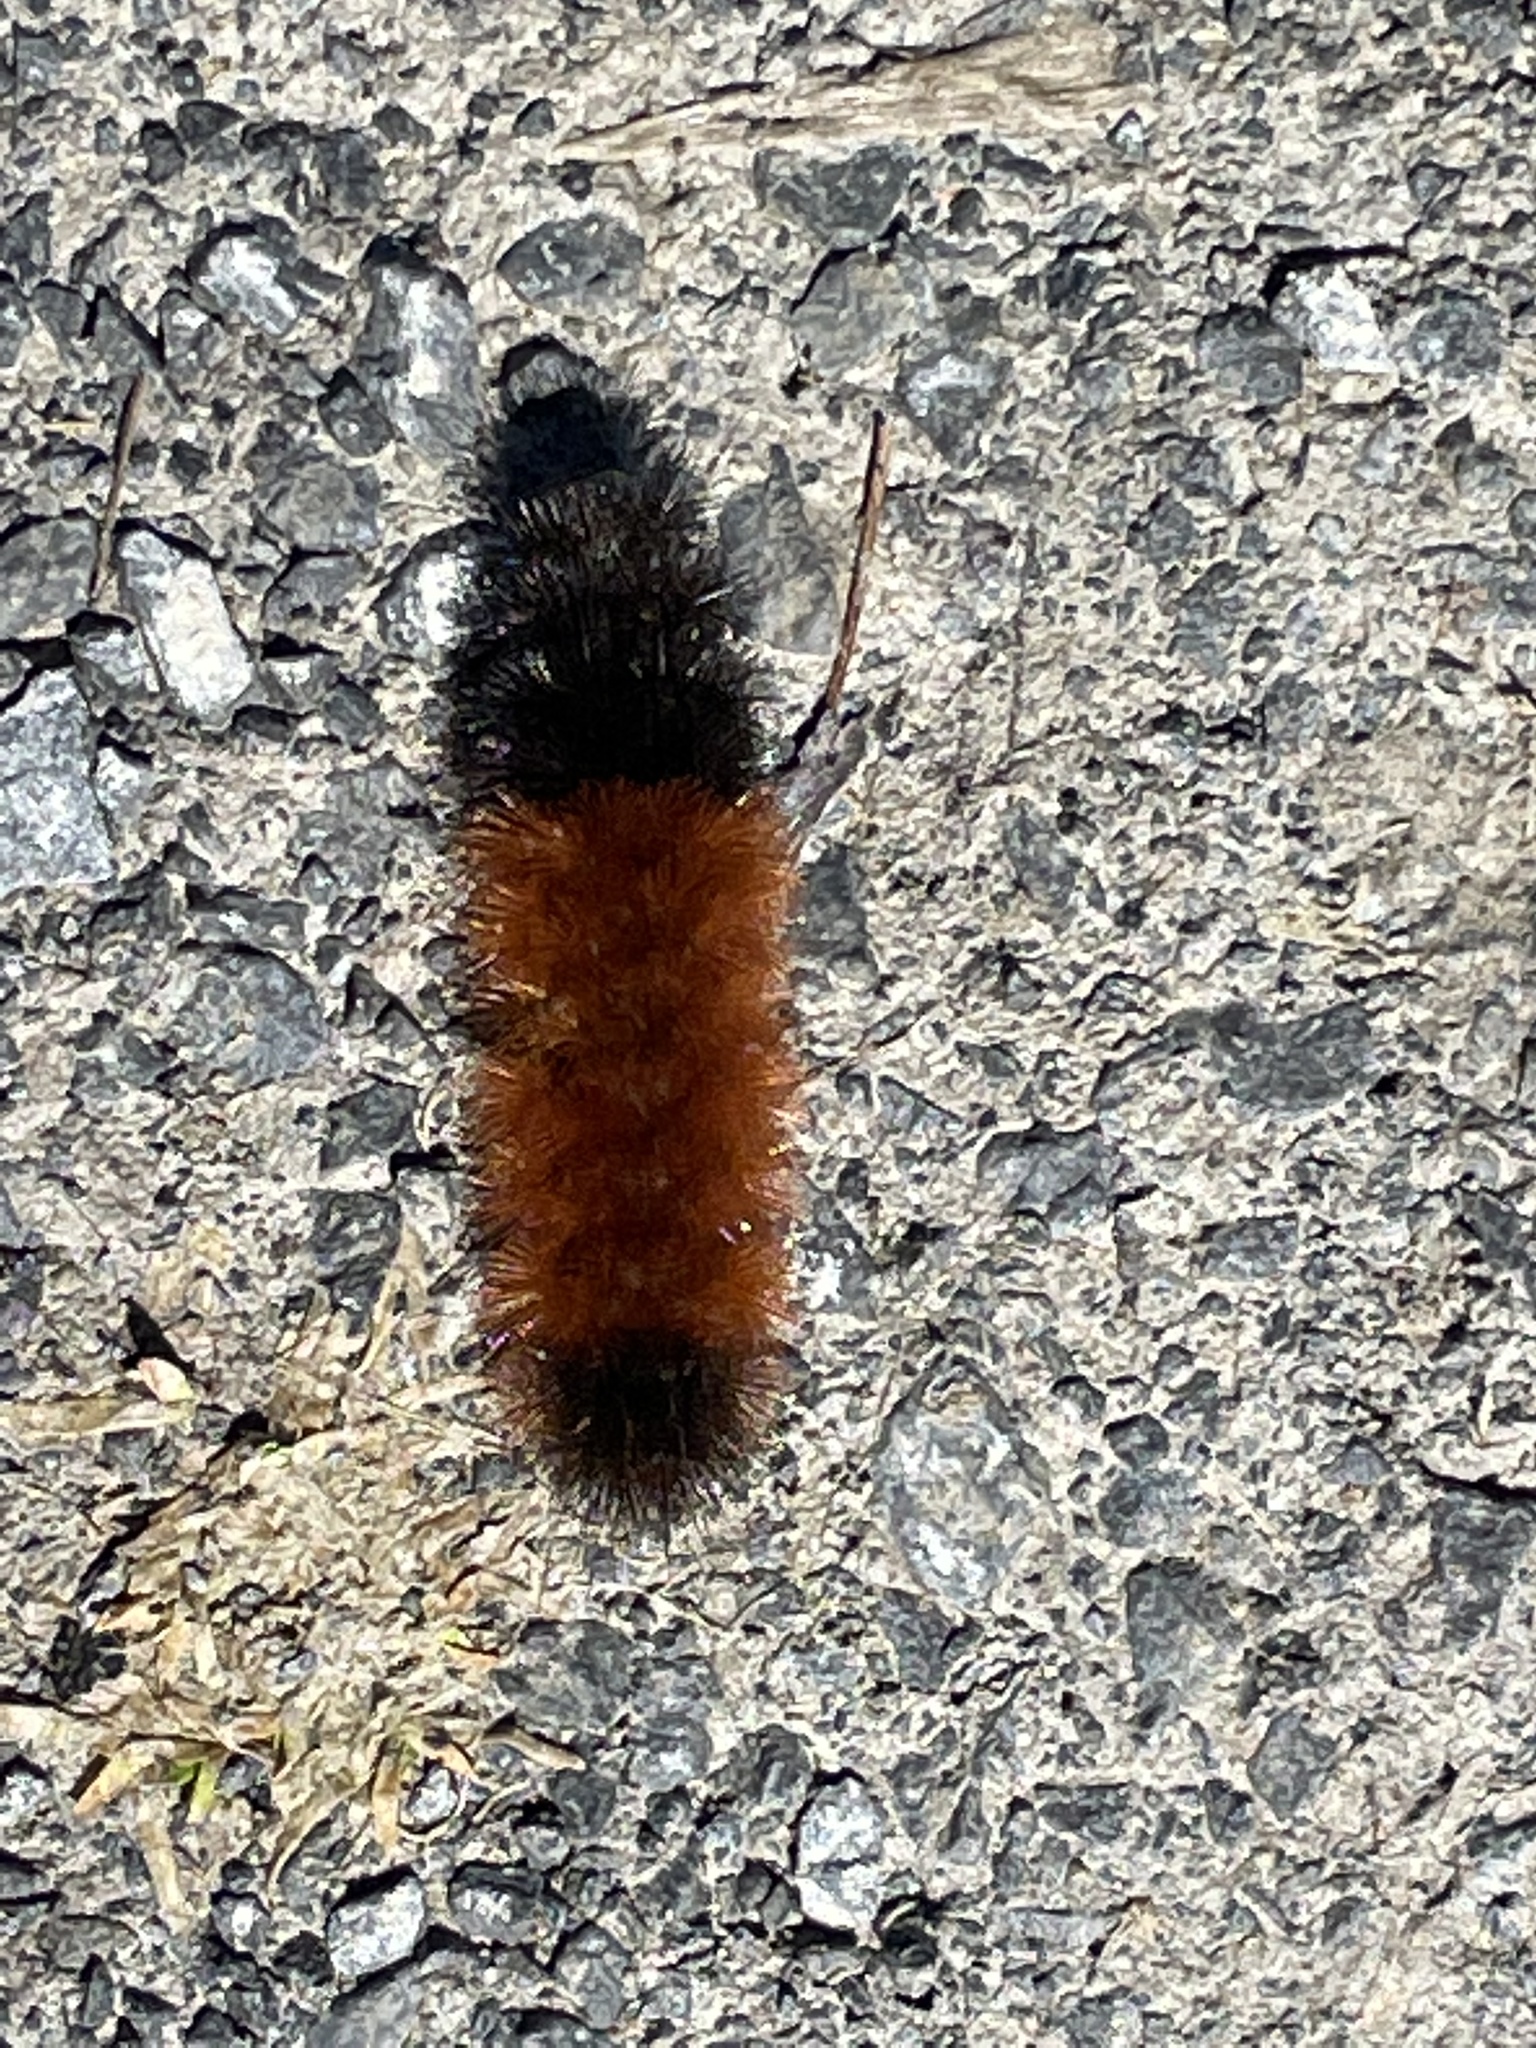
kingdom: Animalia
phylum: Arthropoda
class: Insecta
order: Lepidoptera
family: Erebidae
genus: Pyrrharctia
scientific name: Pyrrharctia isabella
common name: Isabella tiger moth
